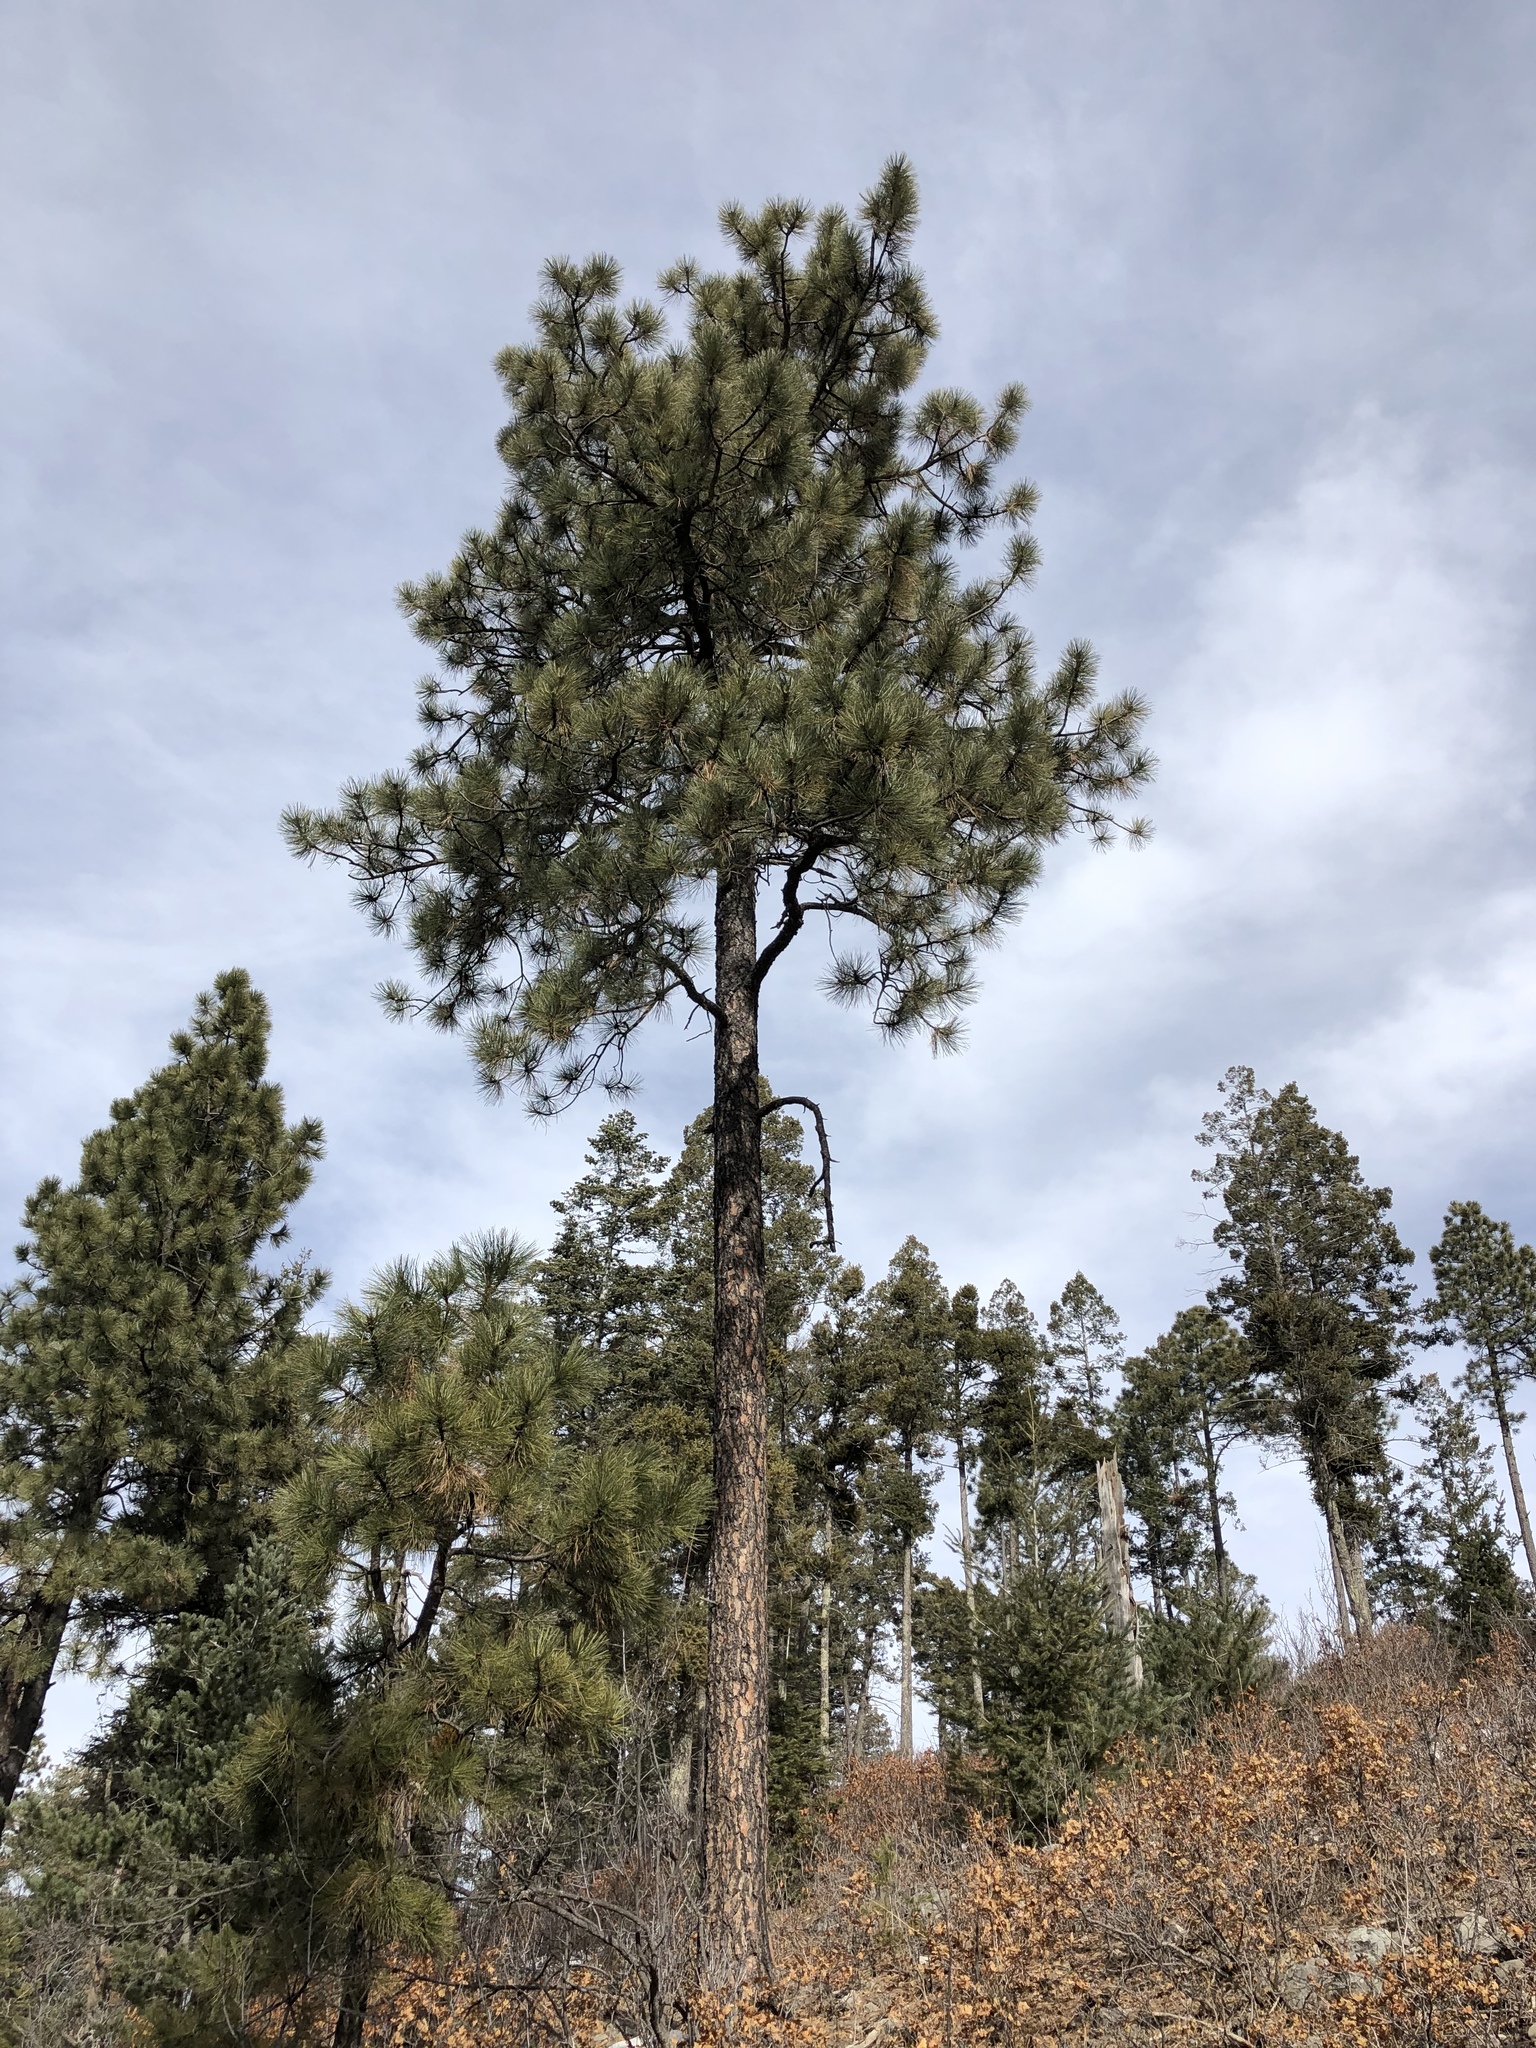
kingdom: Plantae
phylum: Tracheophyta
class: Pinopsida
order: Pinales
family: Pinaceae
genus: Pinus
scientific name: Pinus ponderosa
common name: Western yellow-pine
